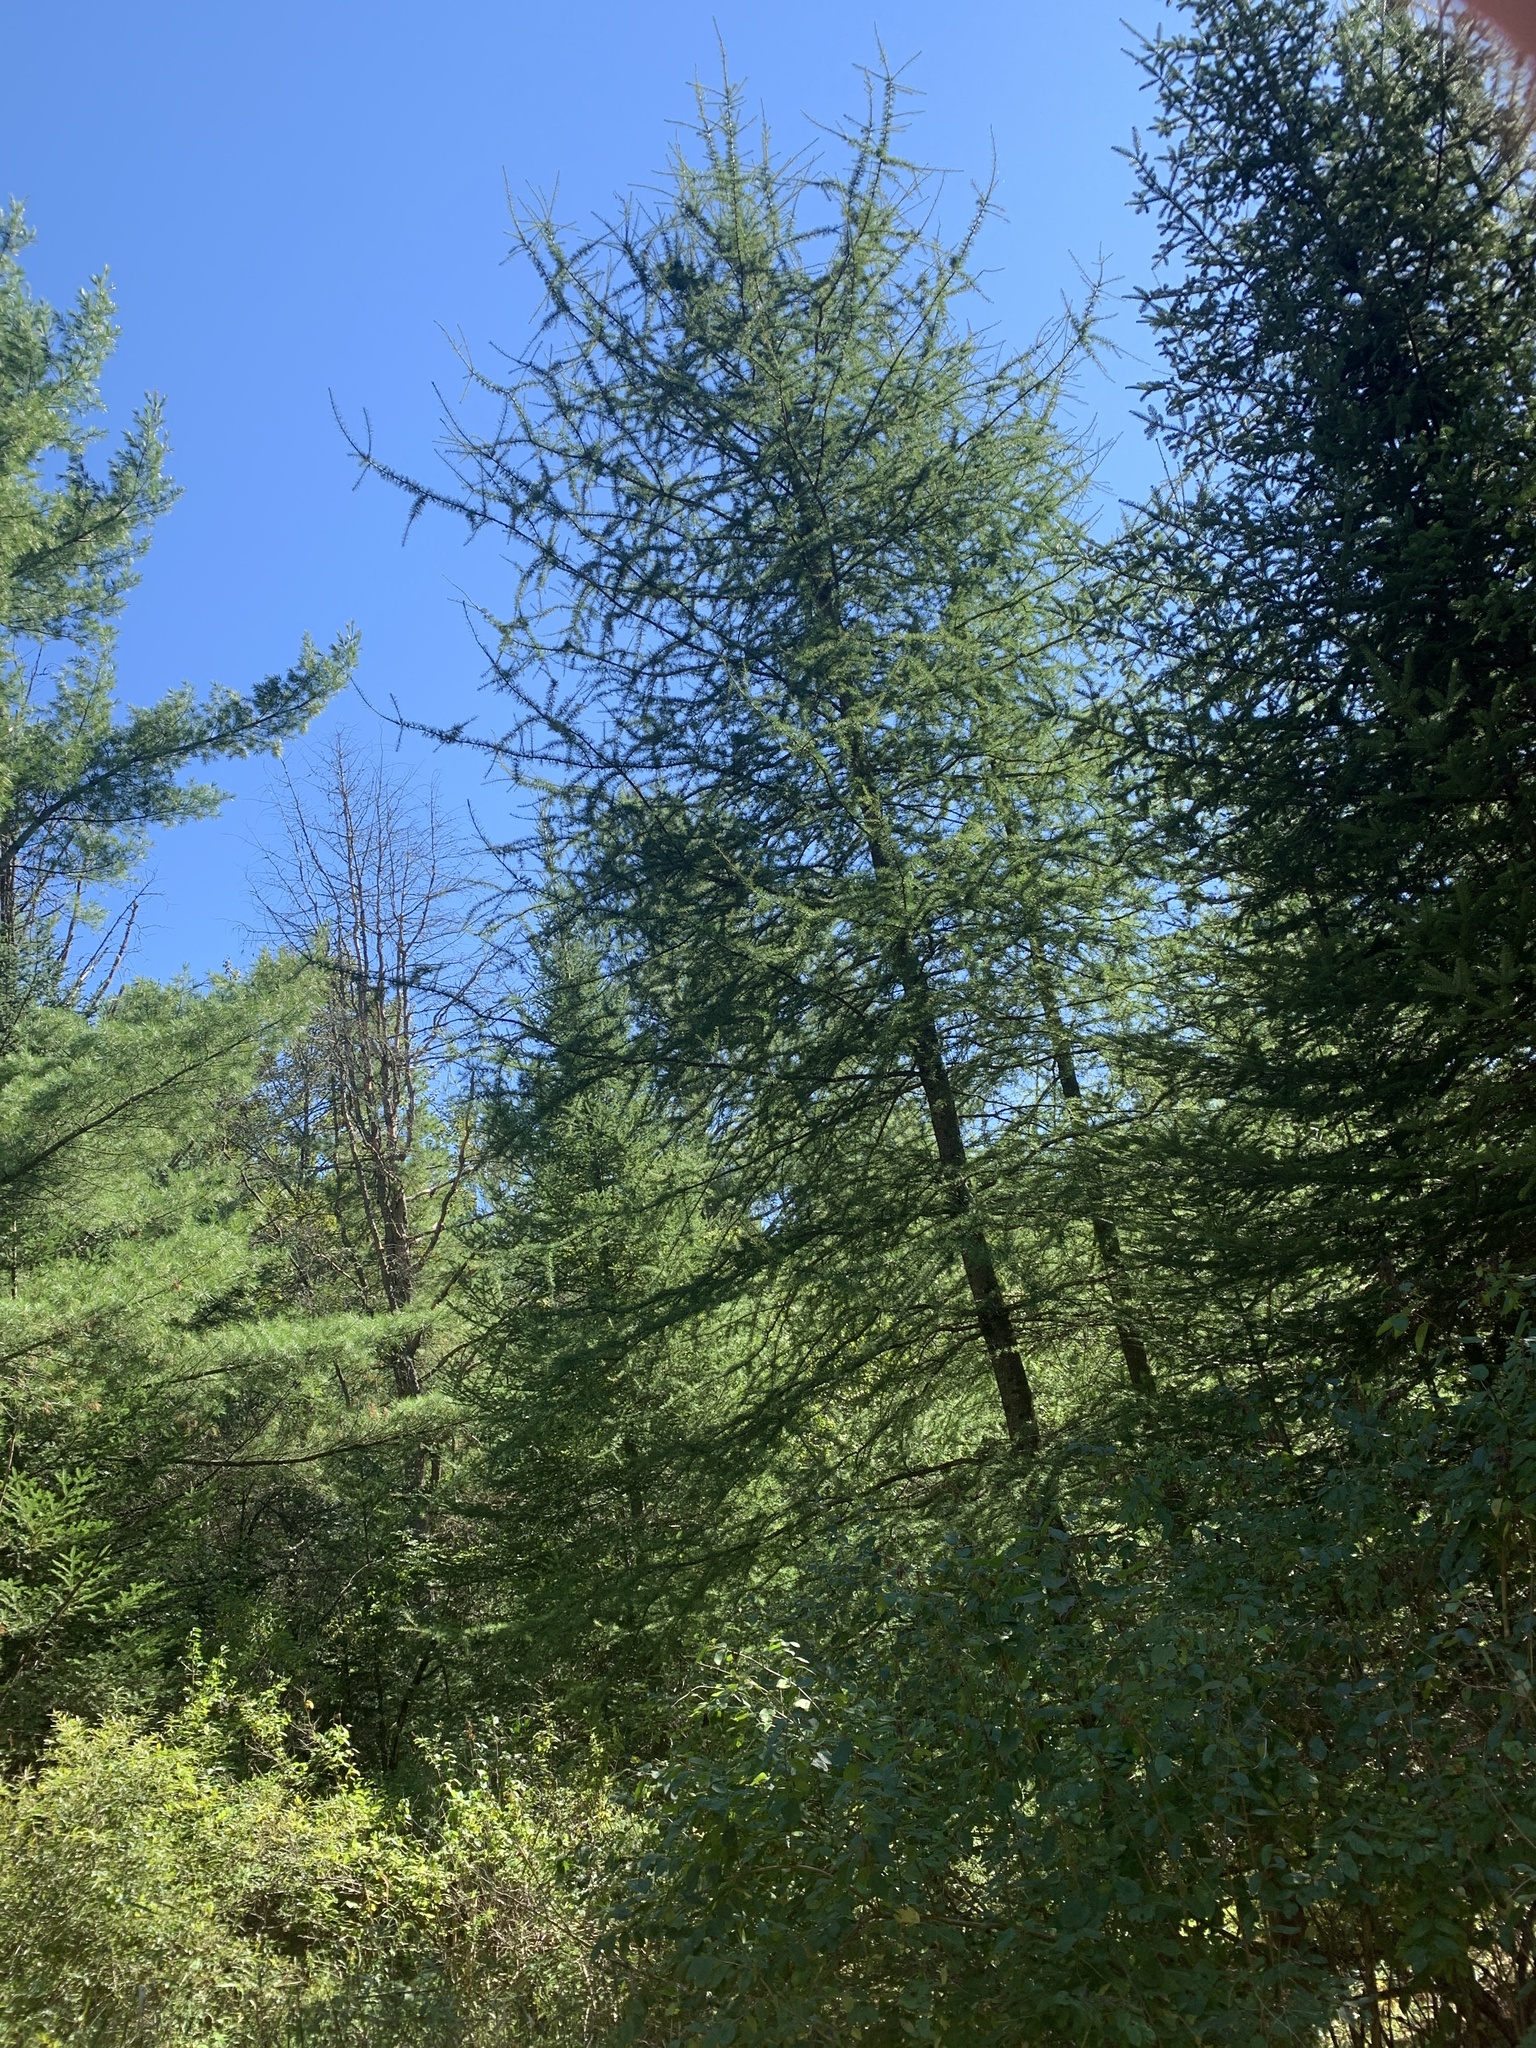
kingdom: Plantae
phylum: Tracheophyta
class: Pinopsida
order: Pinales
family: Pinaceae
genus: Larix
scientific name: Larix laricina
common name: American larch
